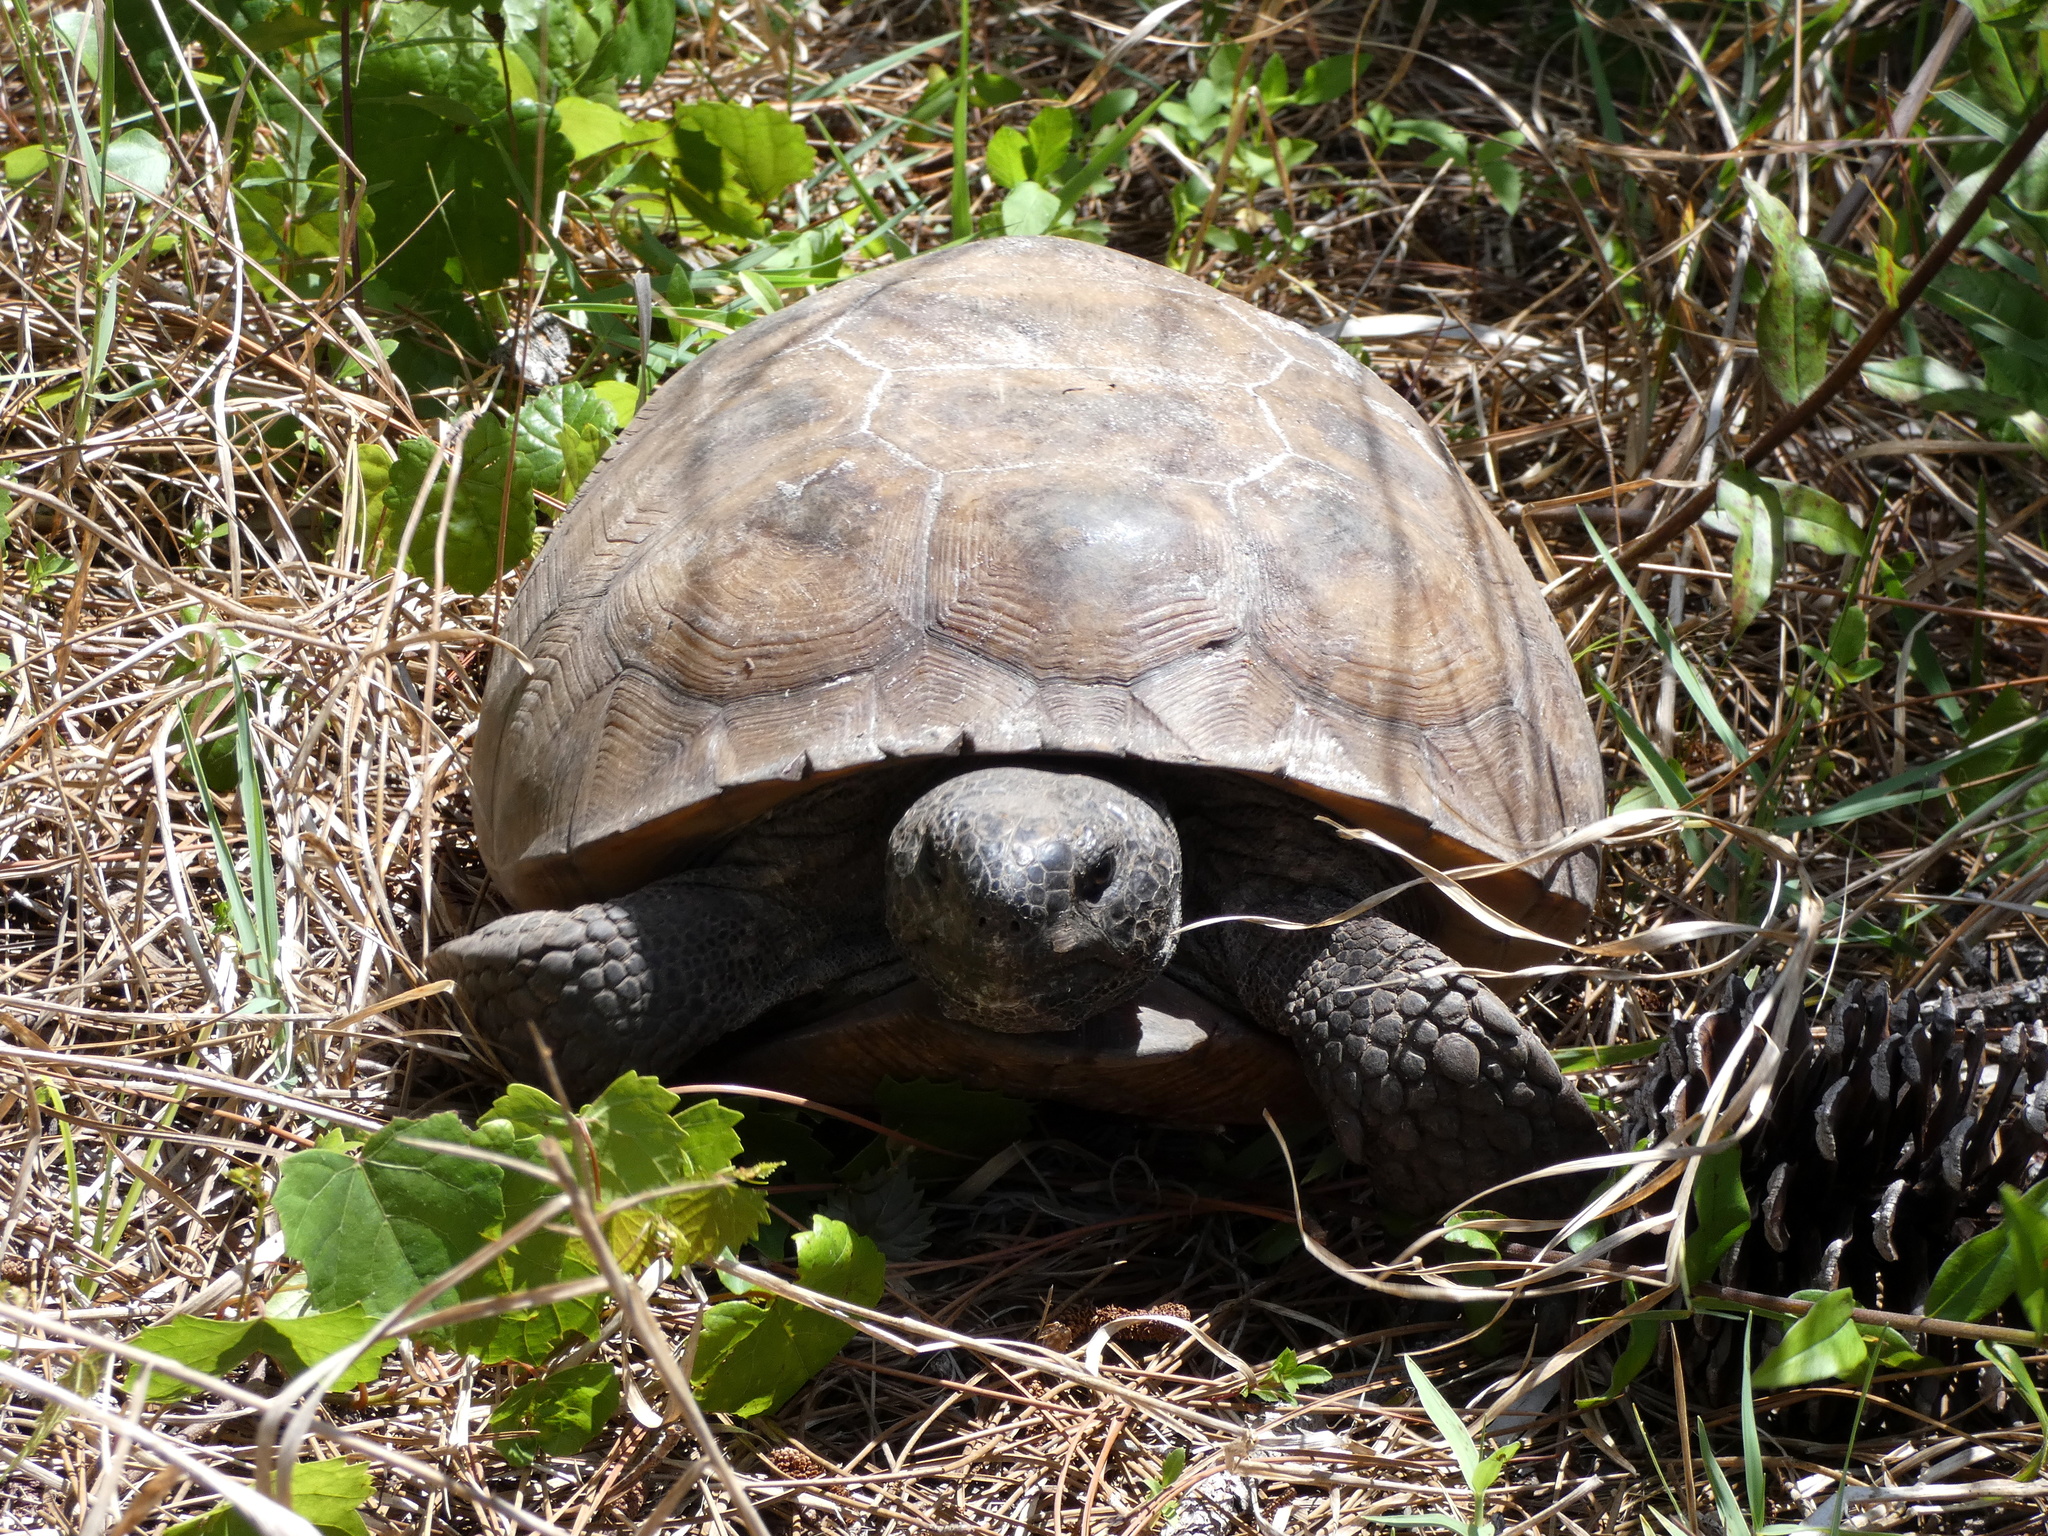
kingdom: Animalia
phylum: Chordata
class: Testudines
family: Testudinidae
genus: Gopherus
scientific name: Gopherus polyphemus
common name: Florida gopher tortoise
